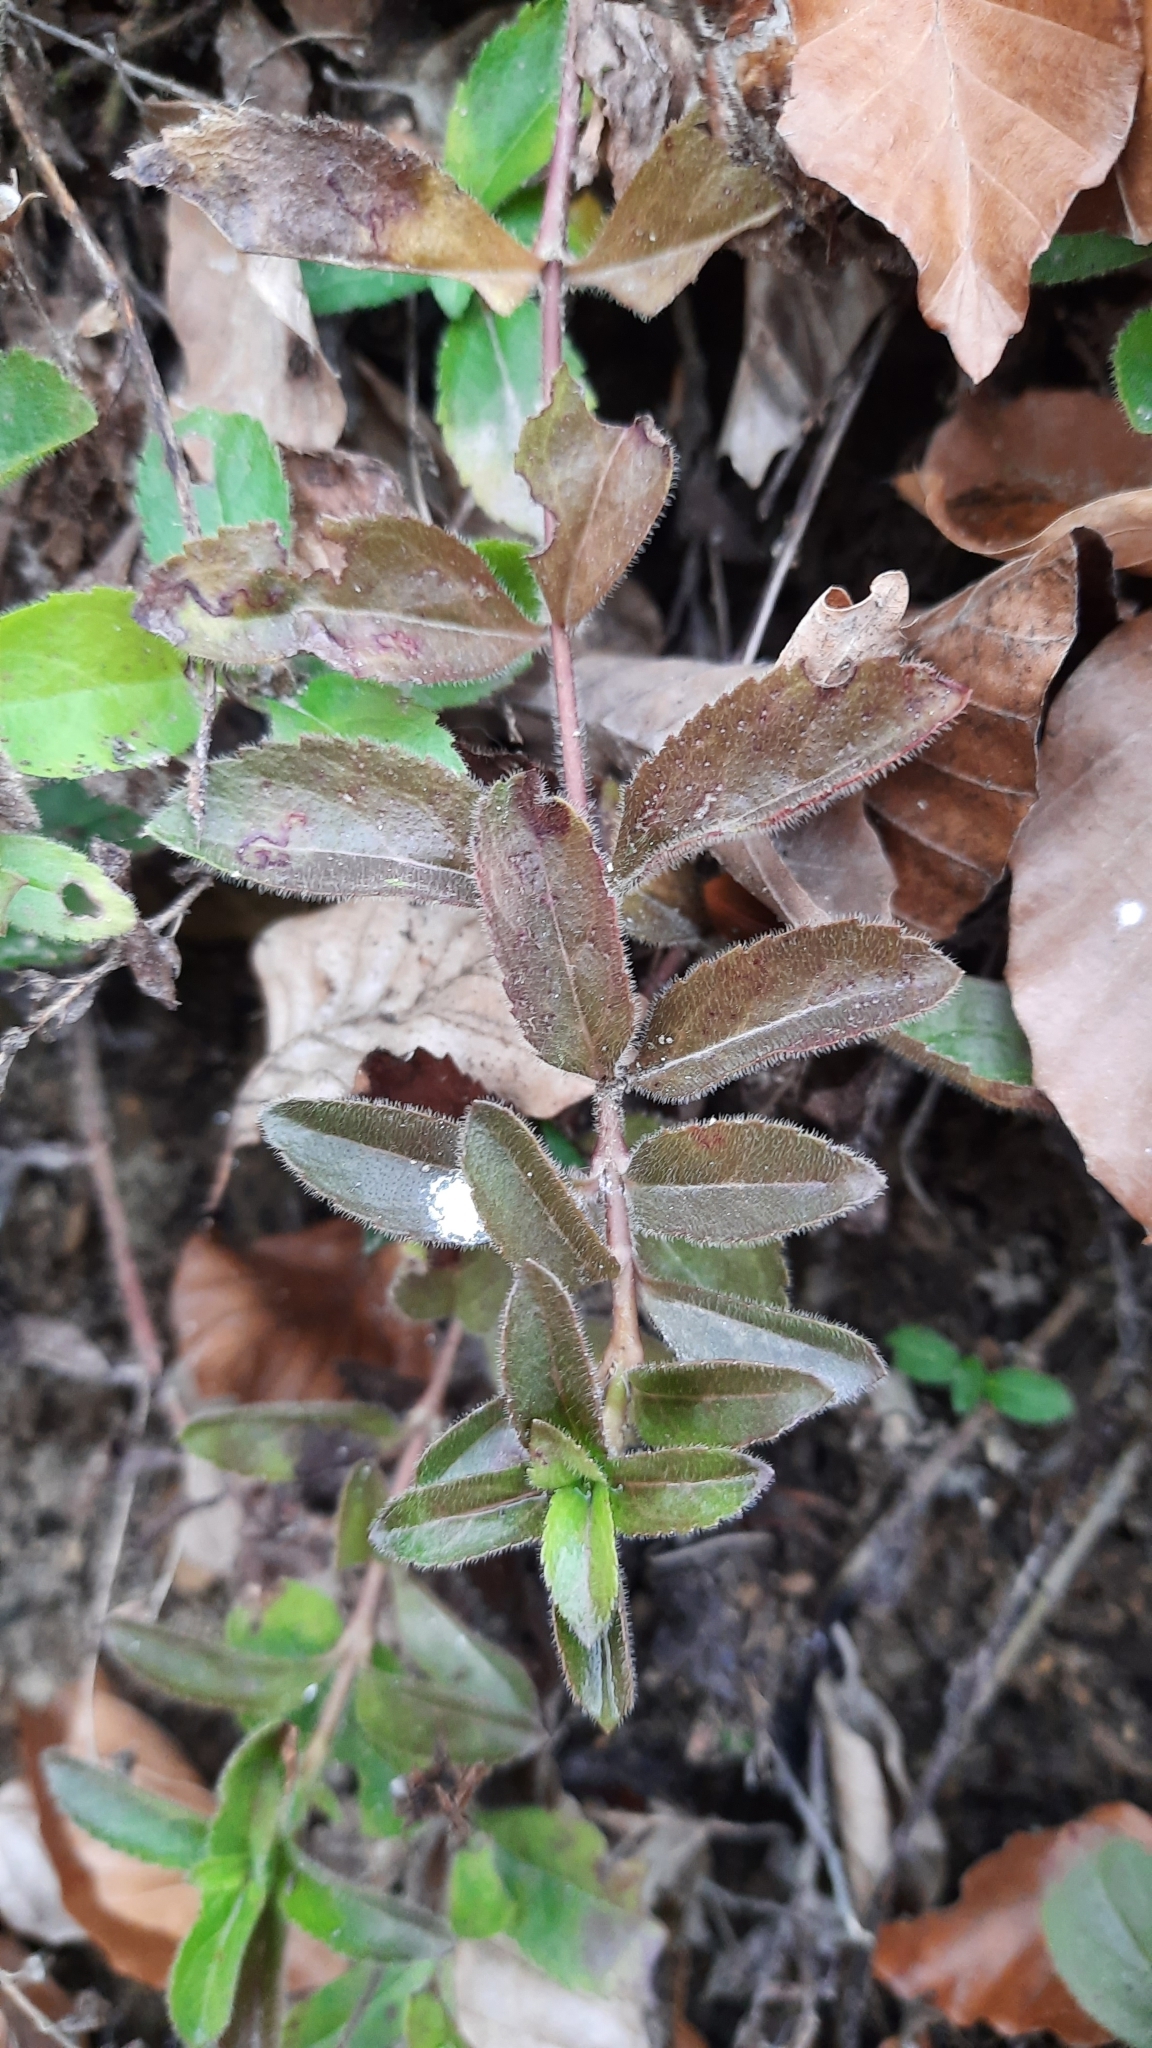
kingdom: Plantae
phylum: Tracheophyta
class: Magnoliopsida
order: Lamiales
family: Plantaginaceae
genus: Veronica
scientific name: Veronica officinalis
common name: Common speedwell
